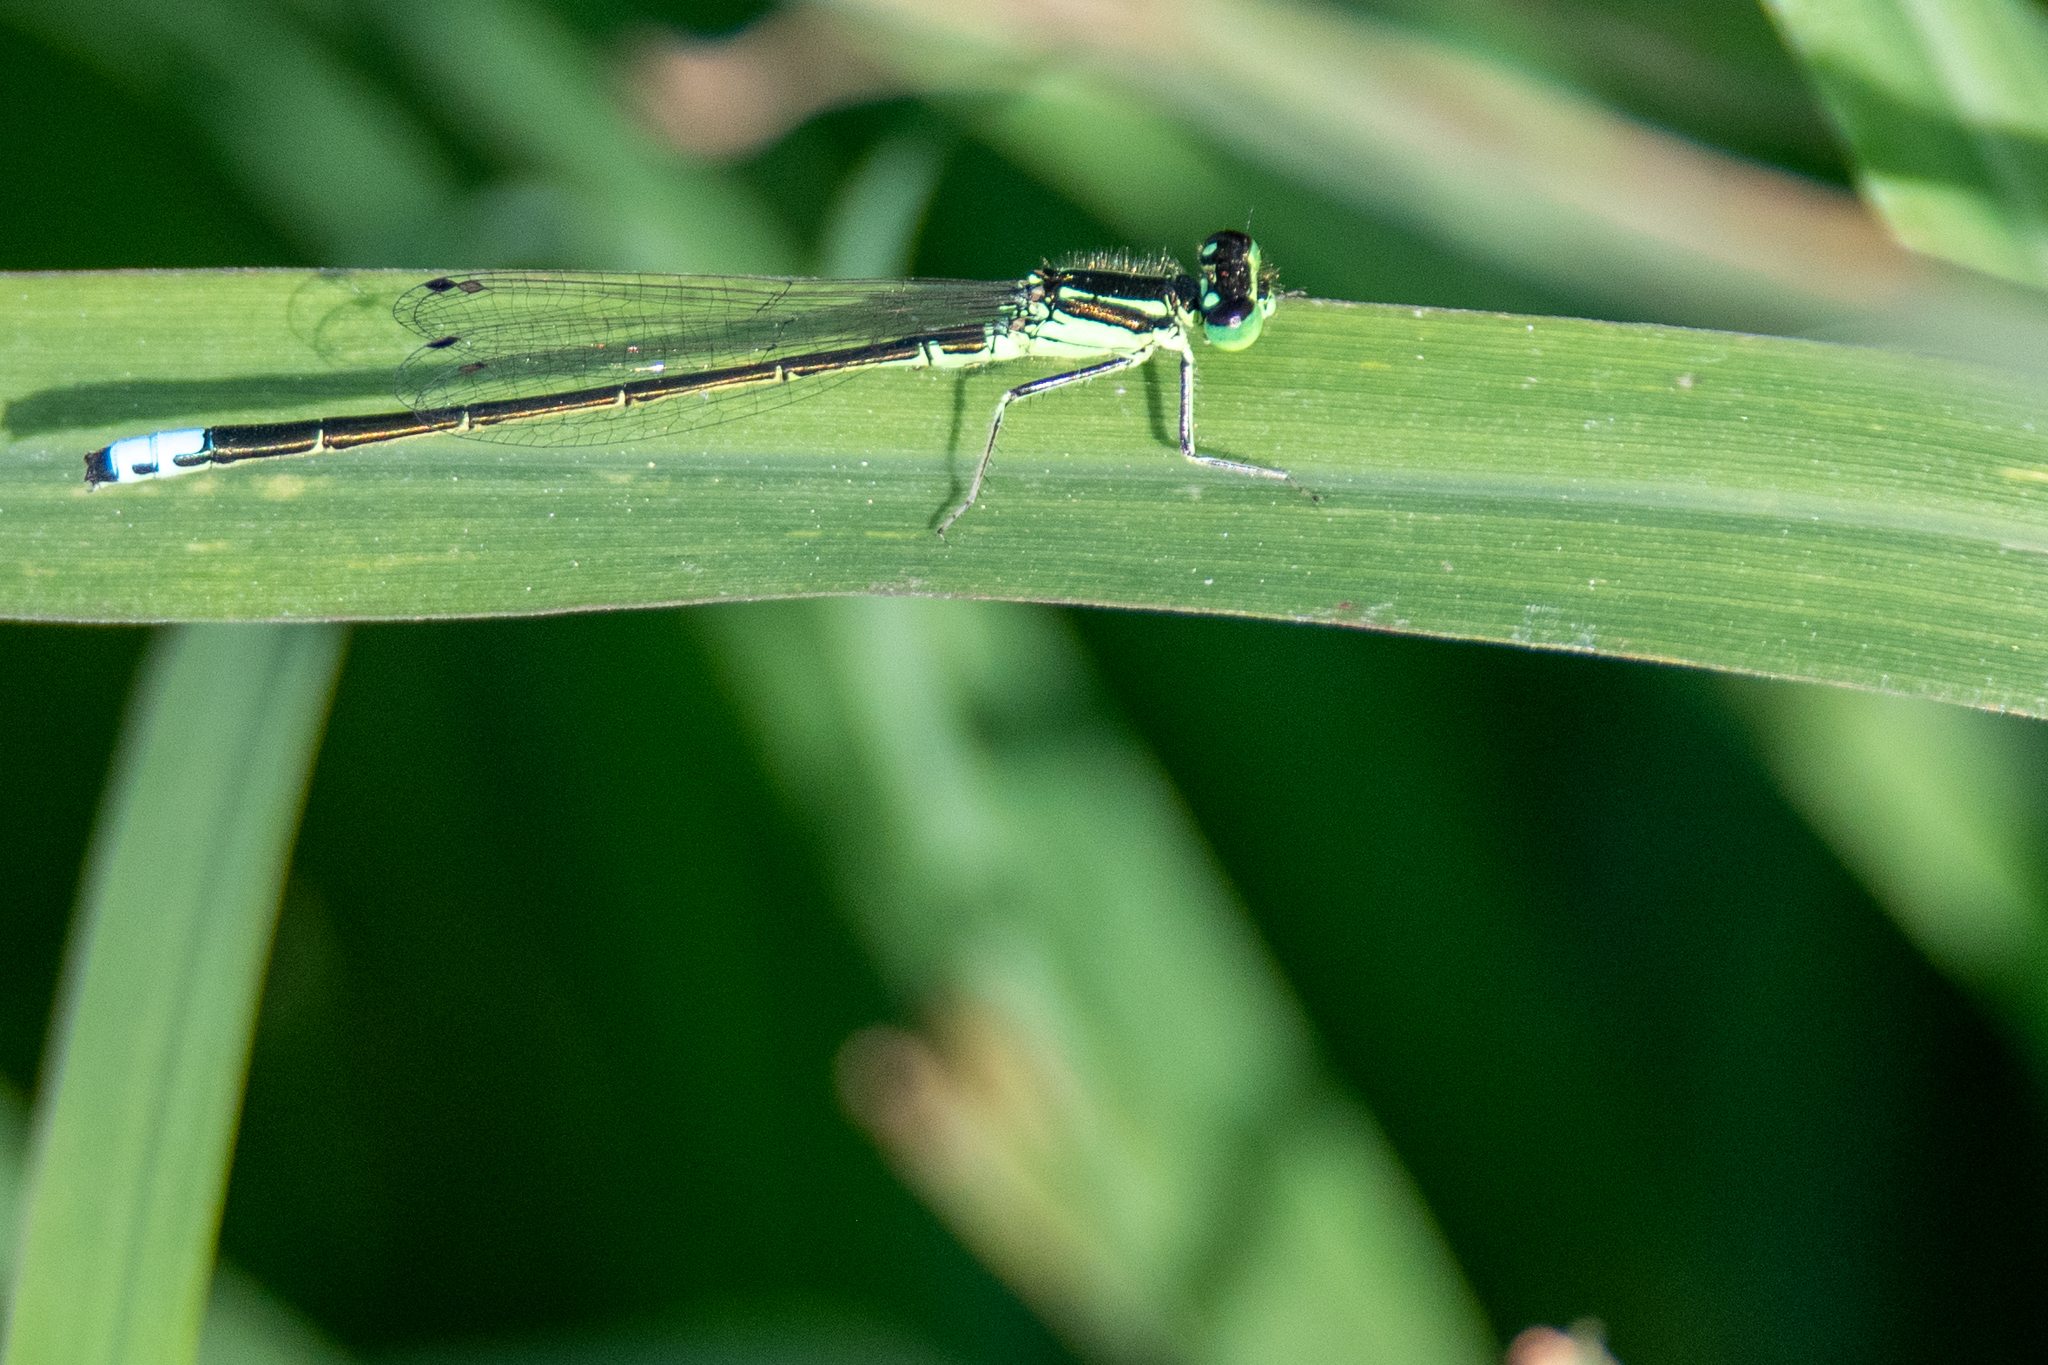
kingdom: Animalia
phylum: Arthropoda
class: Insecta
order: Odonata
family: Coenagrionidae
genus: Ischnura
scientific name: Ischnura verticalis
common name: Eastern forktail
